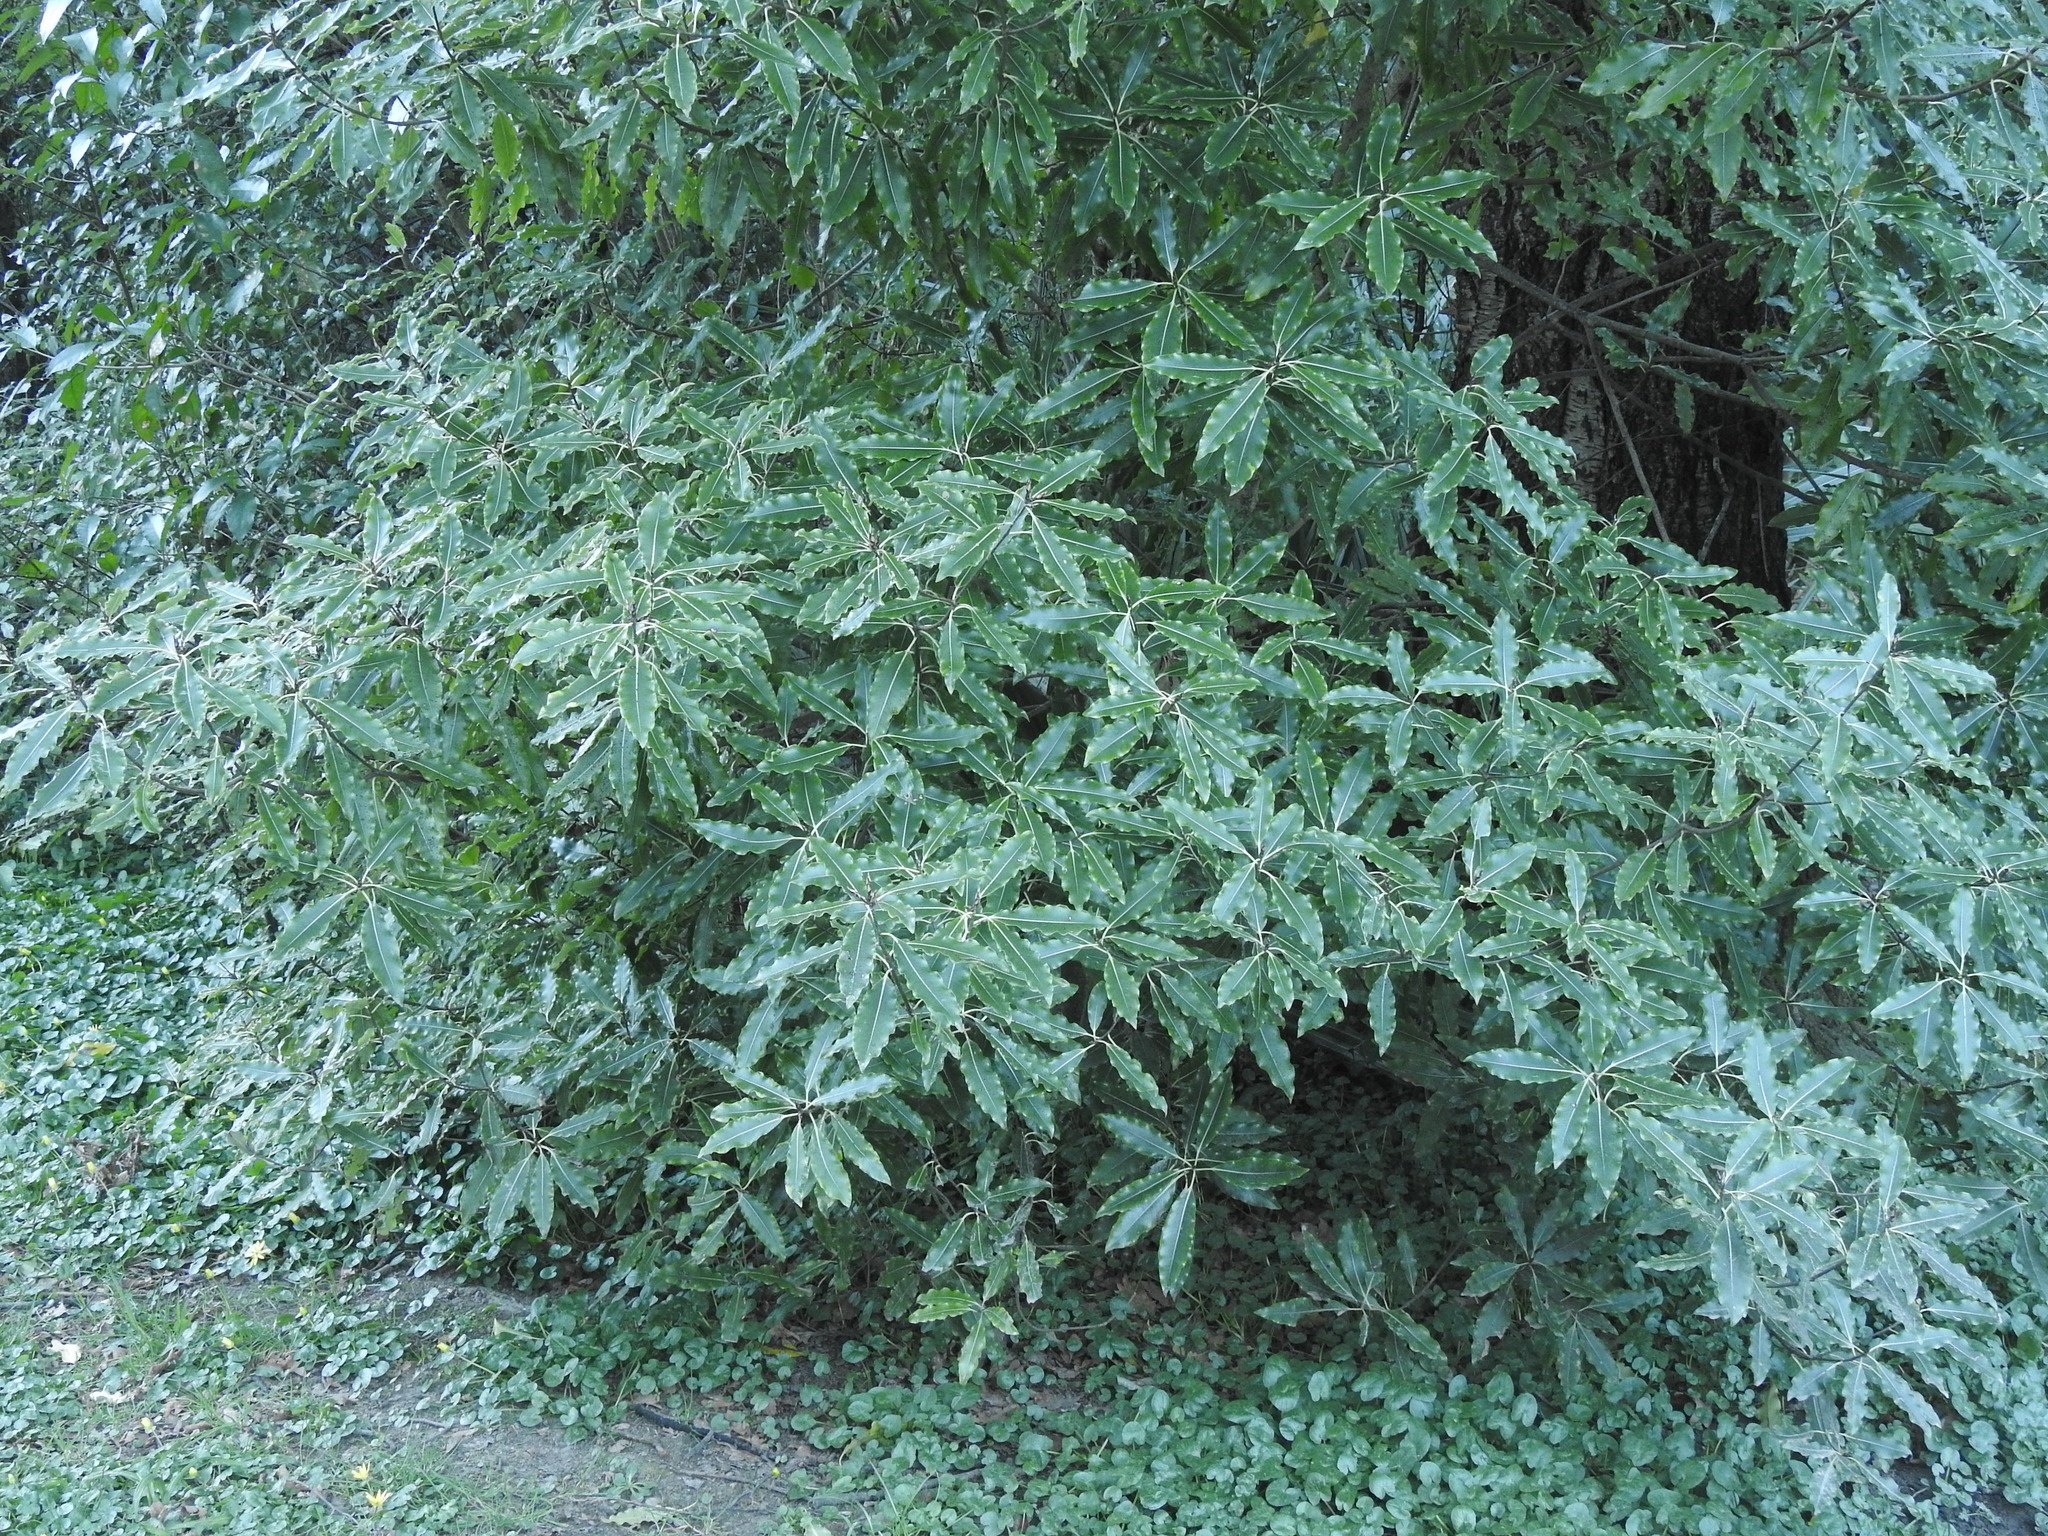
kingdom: Plantae
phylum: Tracheophyta
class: Magnoliopsida
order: Apiales
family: Pittosporaceae
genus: Pittosporum
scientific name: Pittosporum eugenioides
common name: Lemonwood
